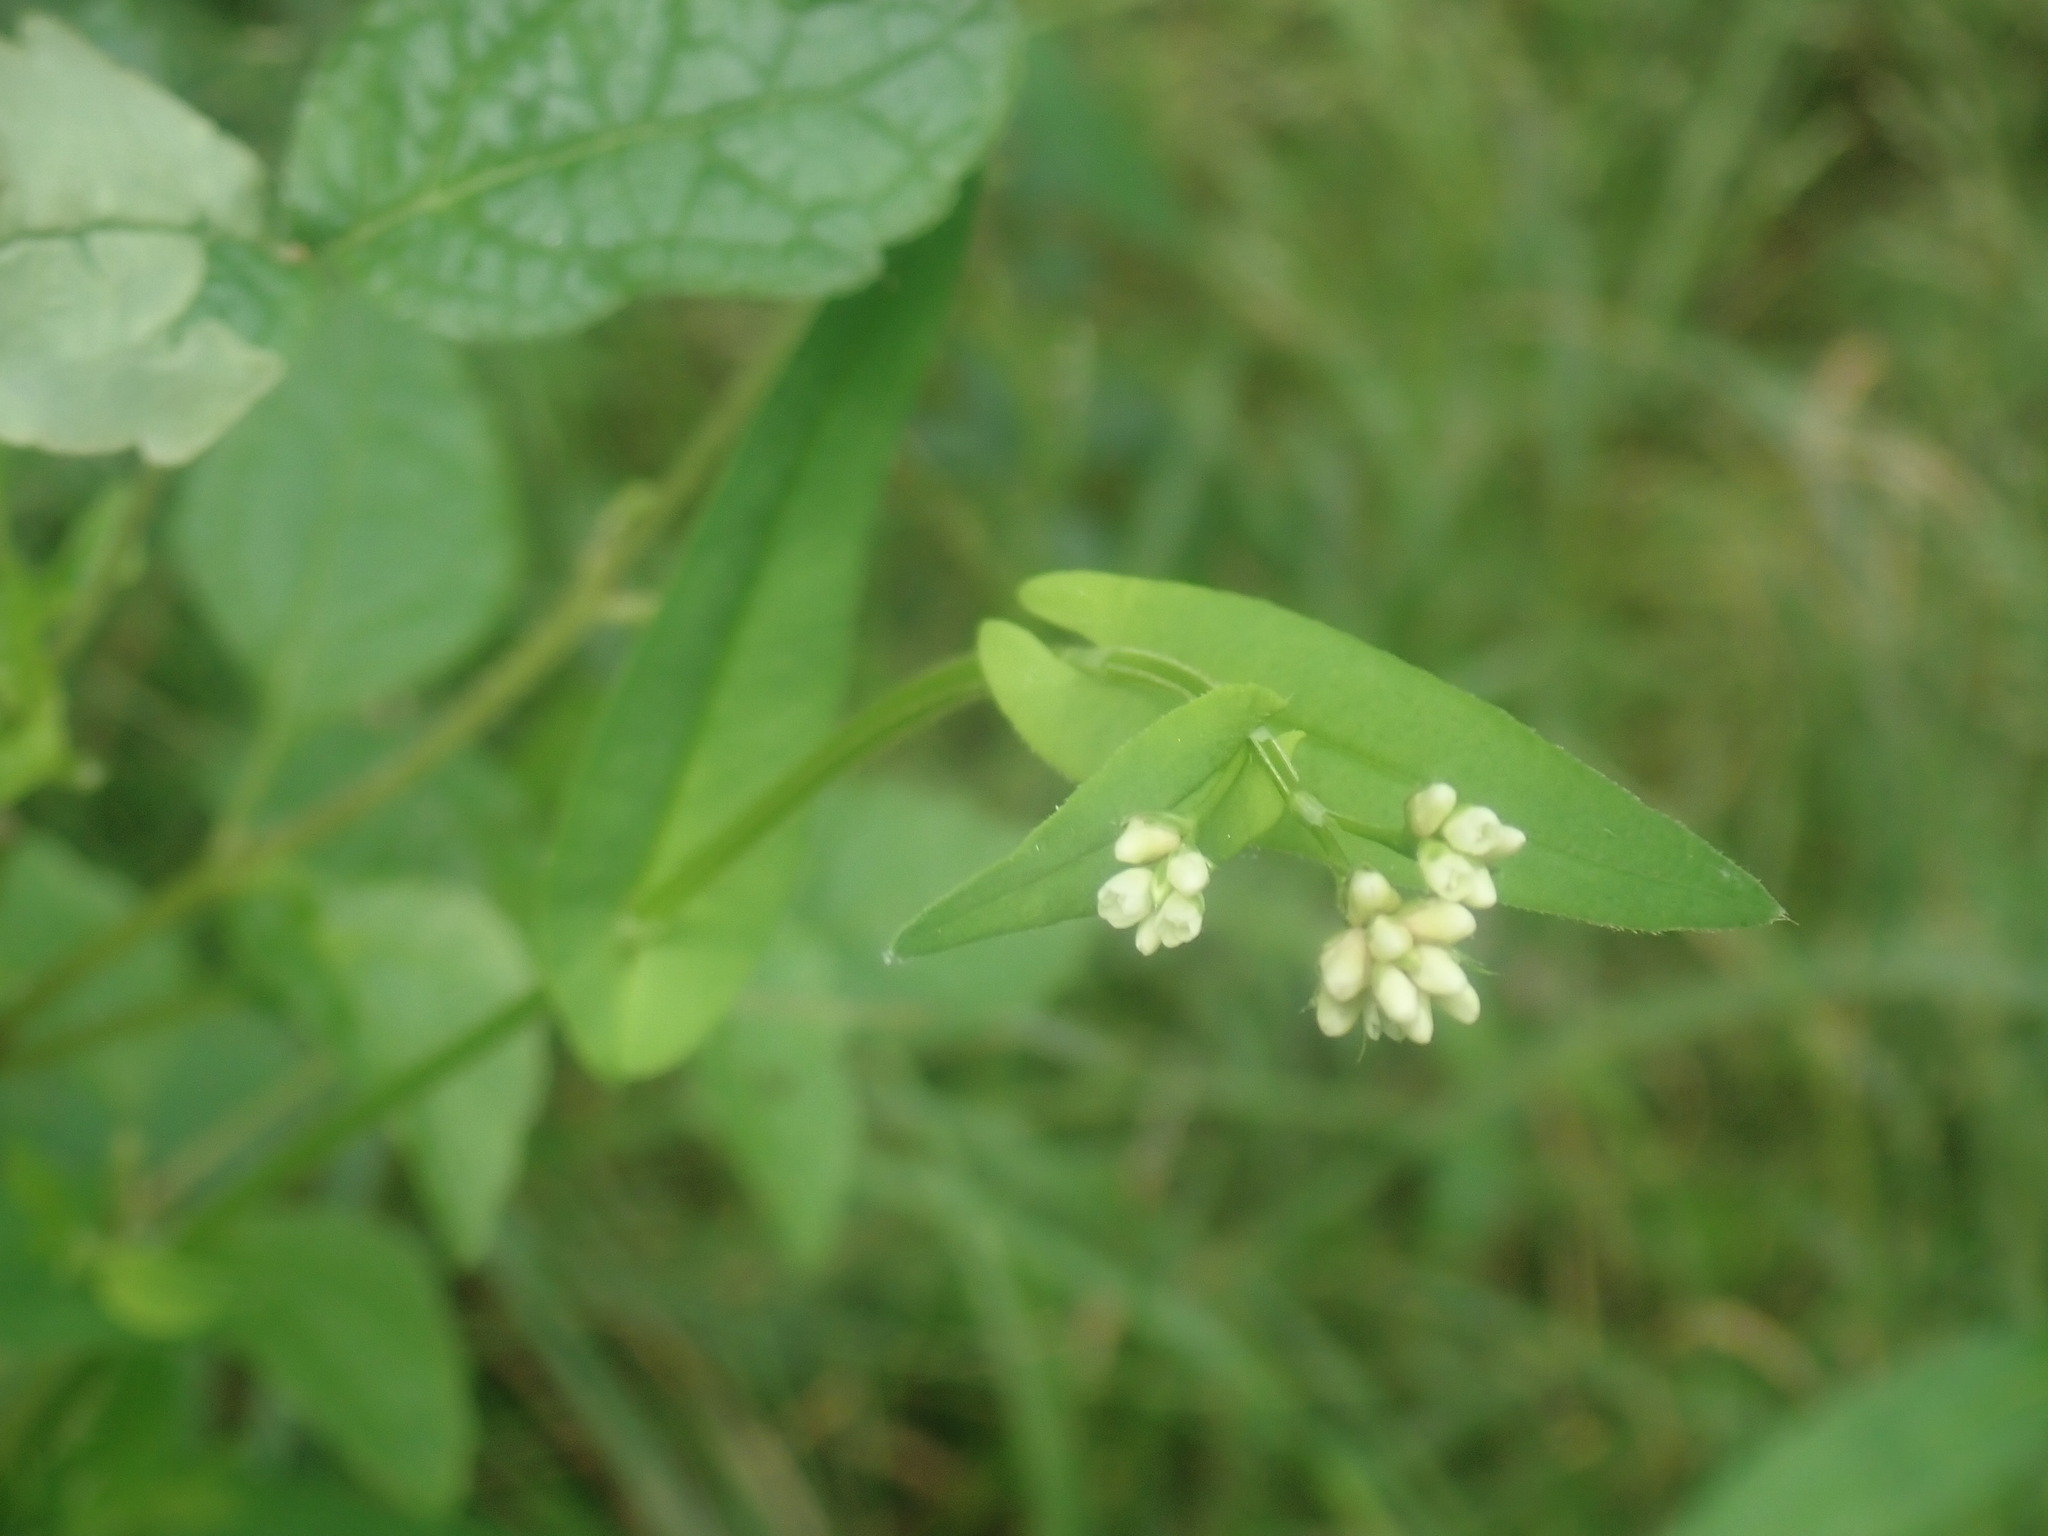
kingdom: Plantae
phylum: Tracheophyta
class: Magnoliopsida
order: Caryophyllales
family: Polygonaceae
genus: Persicaria
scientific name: Persicaria sagittata
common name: American tearthumb
